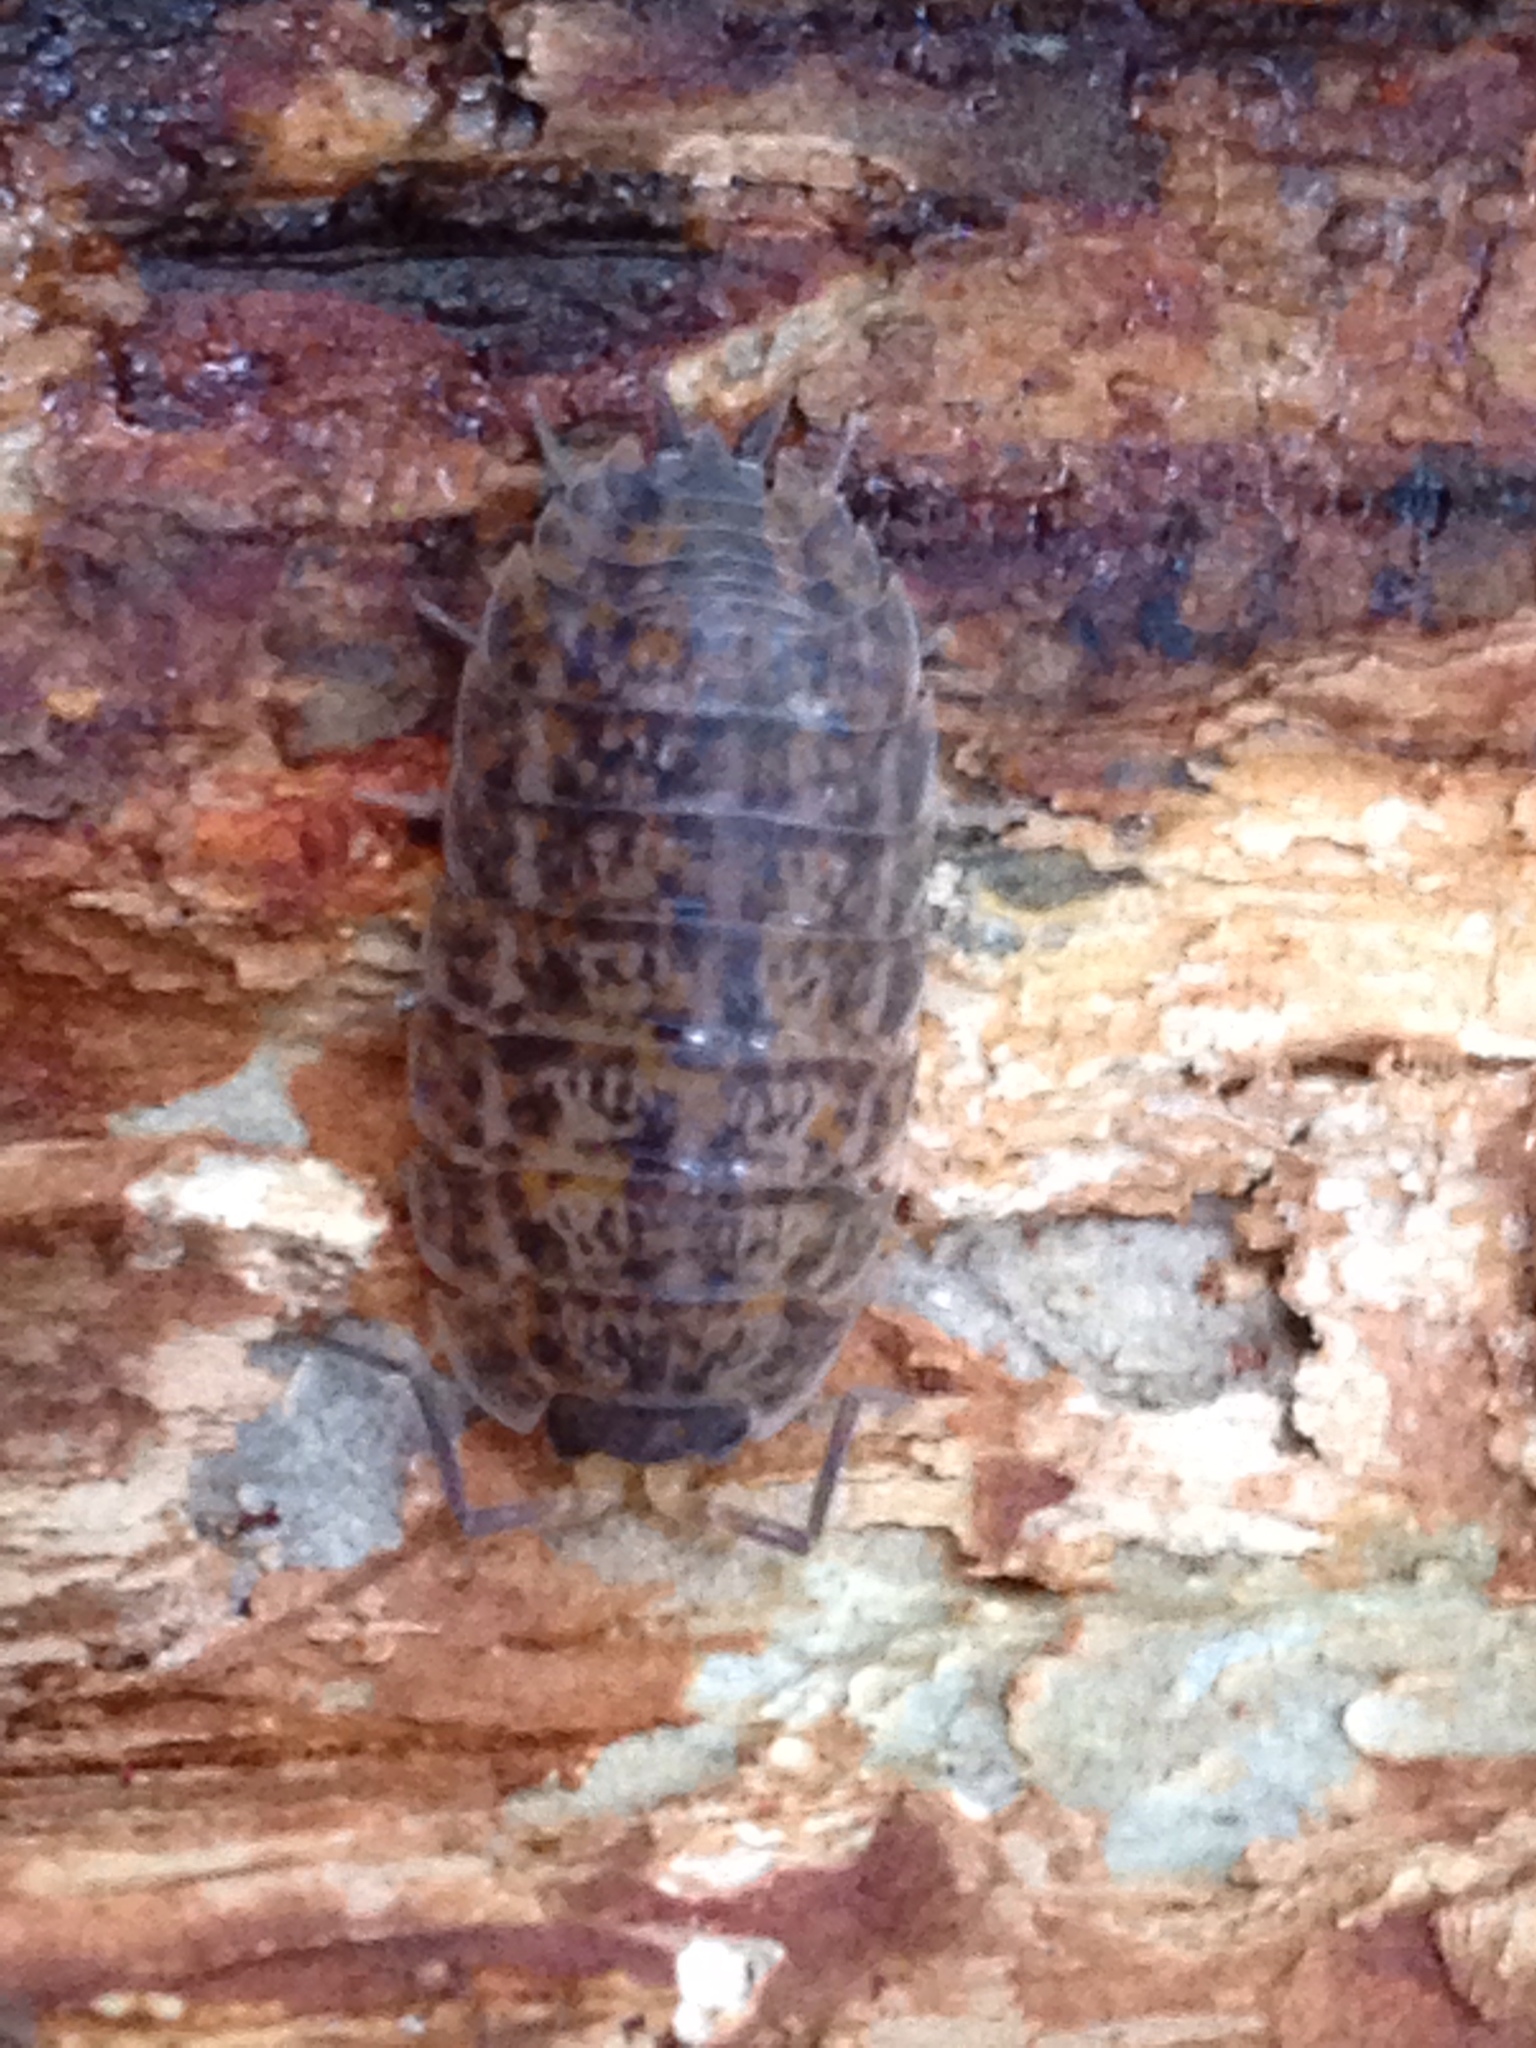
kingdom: Animalia
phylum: Arthropoda
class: Malacostraca
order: Isopoda
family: Trachelipodidae
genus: Trachelipus
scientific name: Trachelipus rathkii
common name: Isopod
